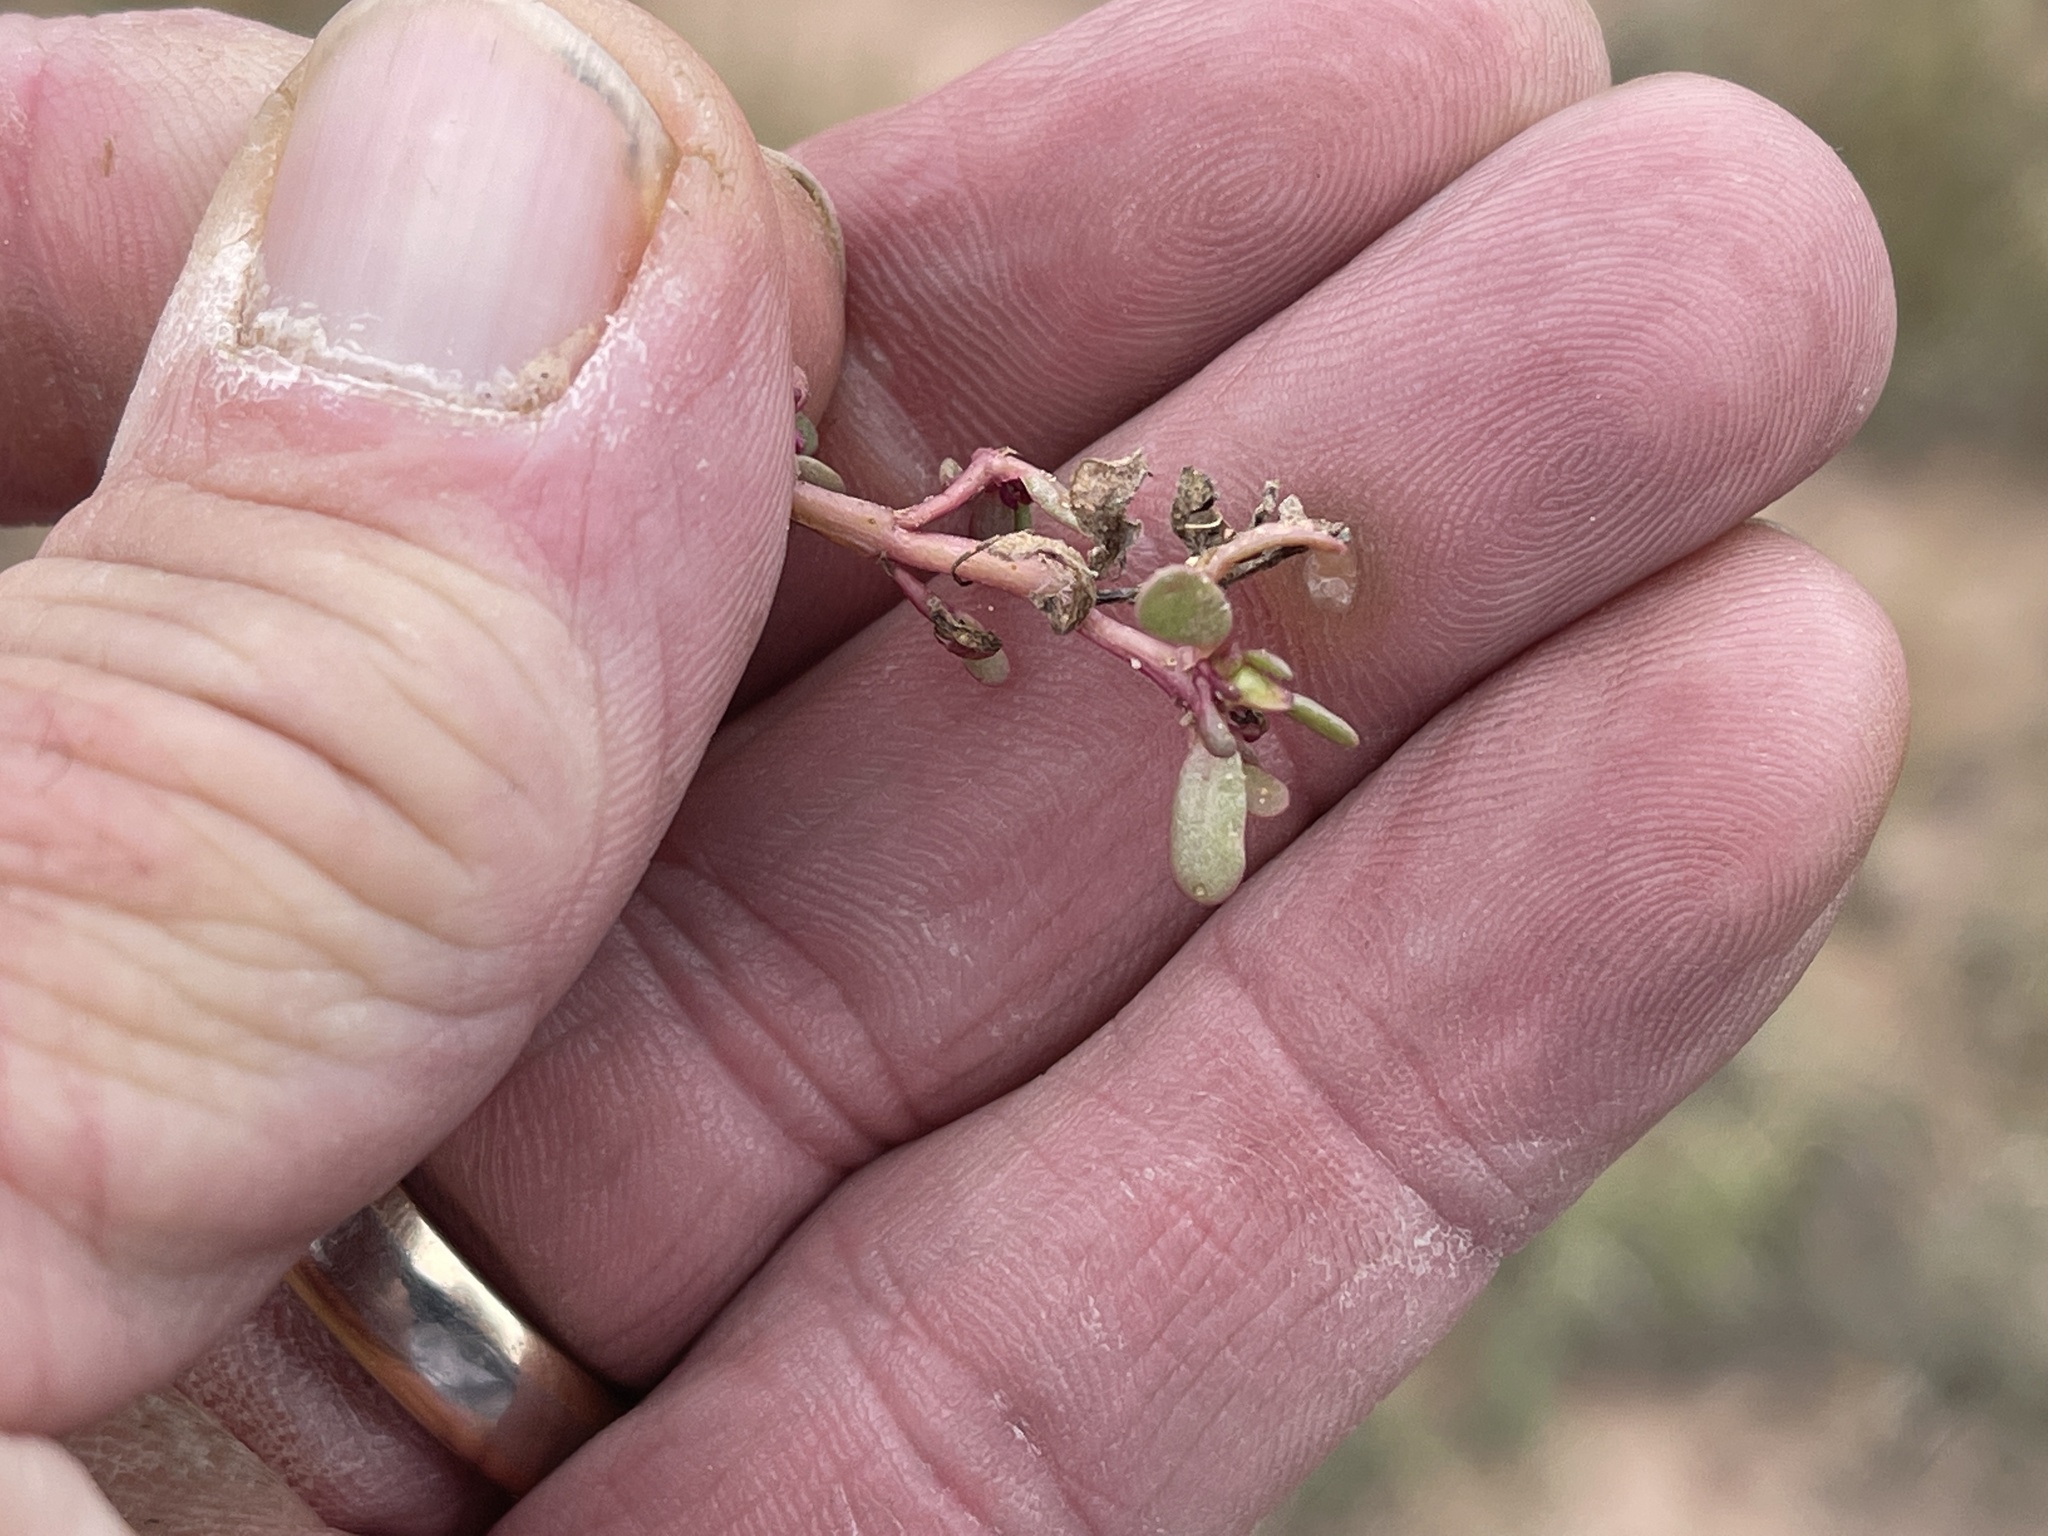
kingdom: Plantae
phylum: Tracheophyta
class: Magnoliopsida
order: Caryophyllales
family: Aizoaceae
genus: Trianthema
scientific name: Trianthema portulacastrum
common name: Desert horsepurslane
